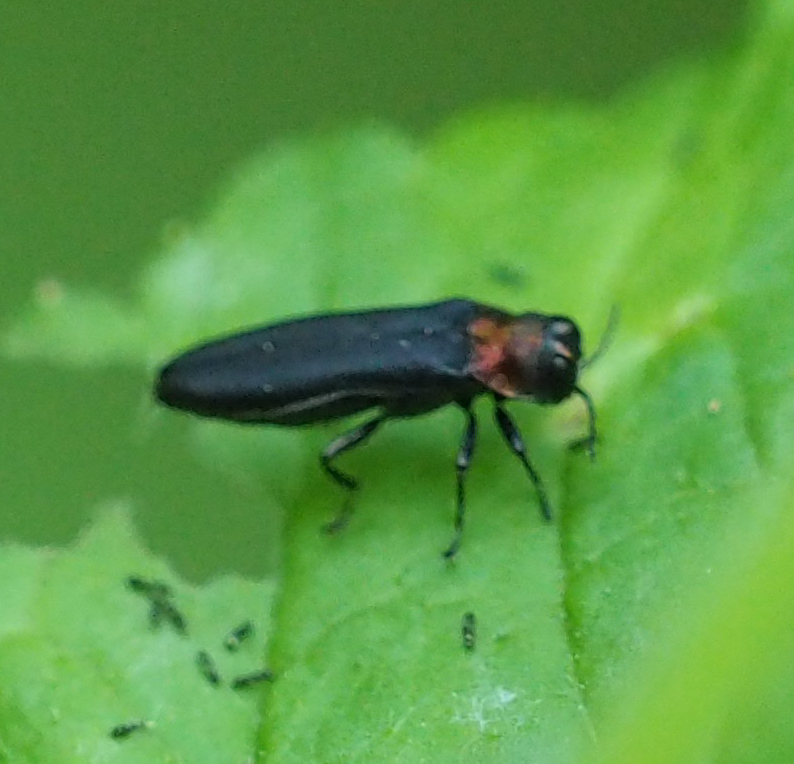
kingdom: Animalia
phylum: Arthropoda
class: Insecta
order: Coleoptera
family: Buprestidae
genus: Agrilus
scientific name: Agrilus ruficollis
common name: Red-necked cane borer beetle
